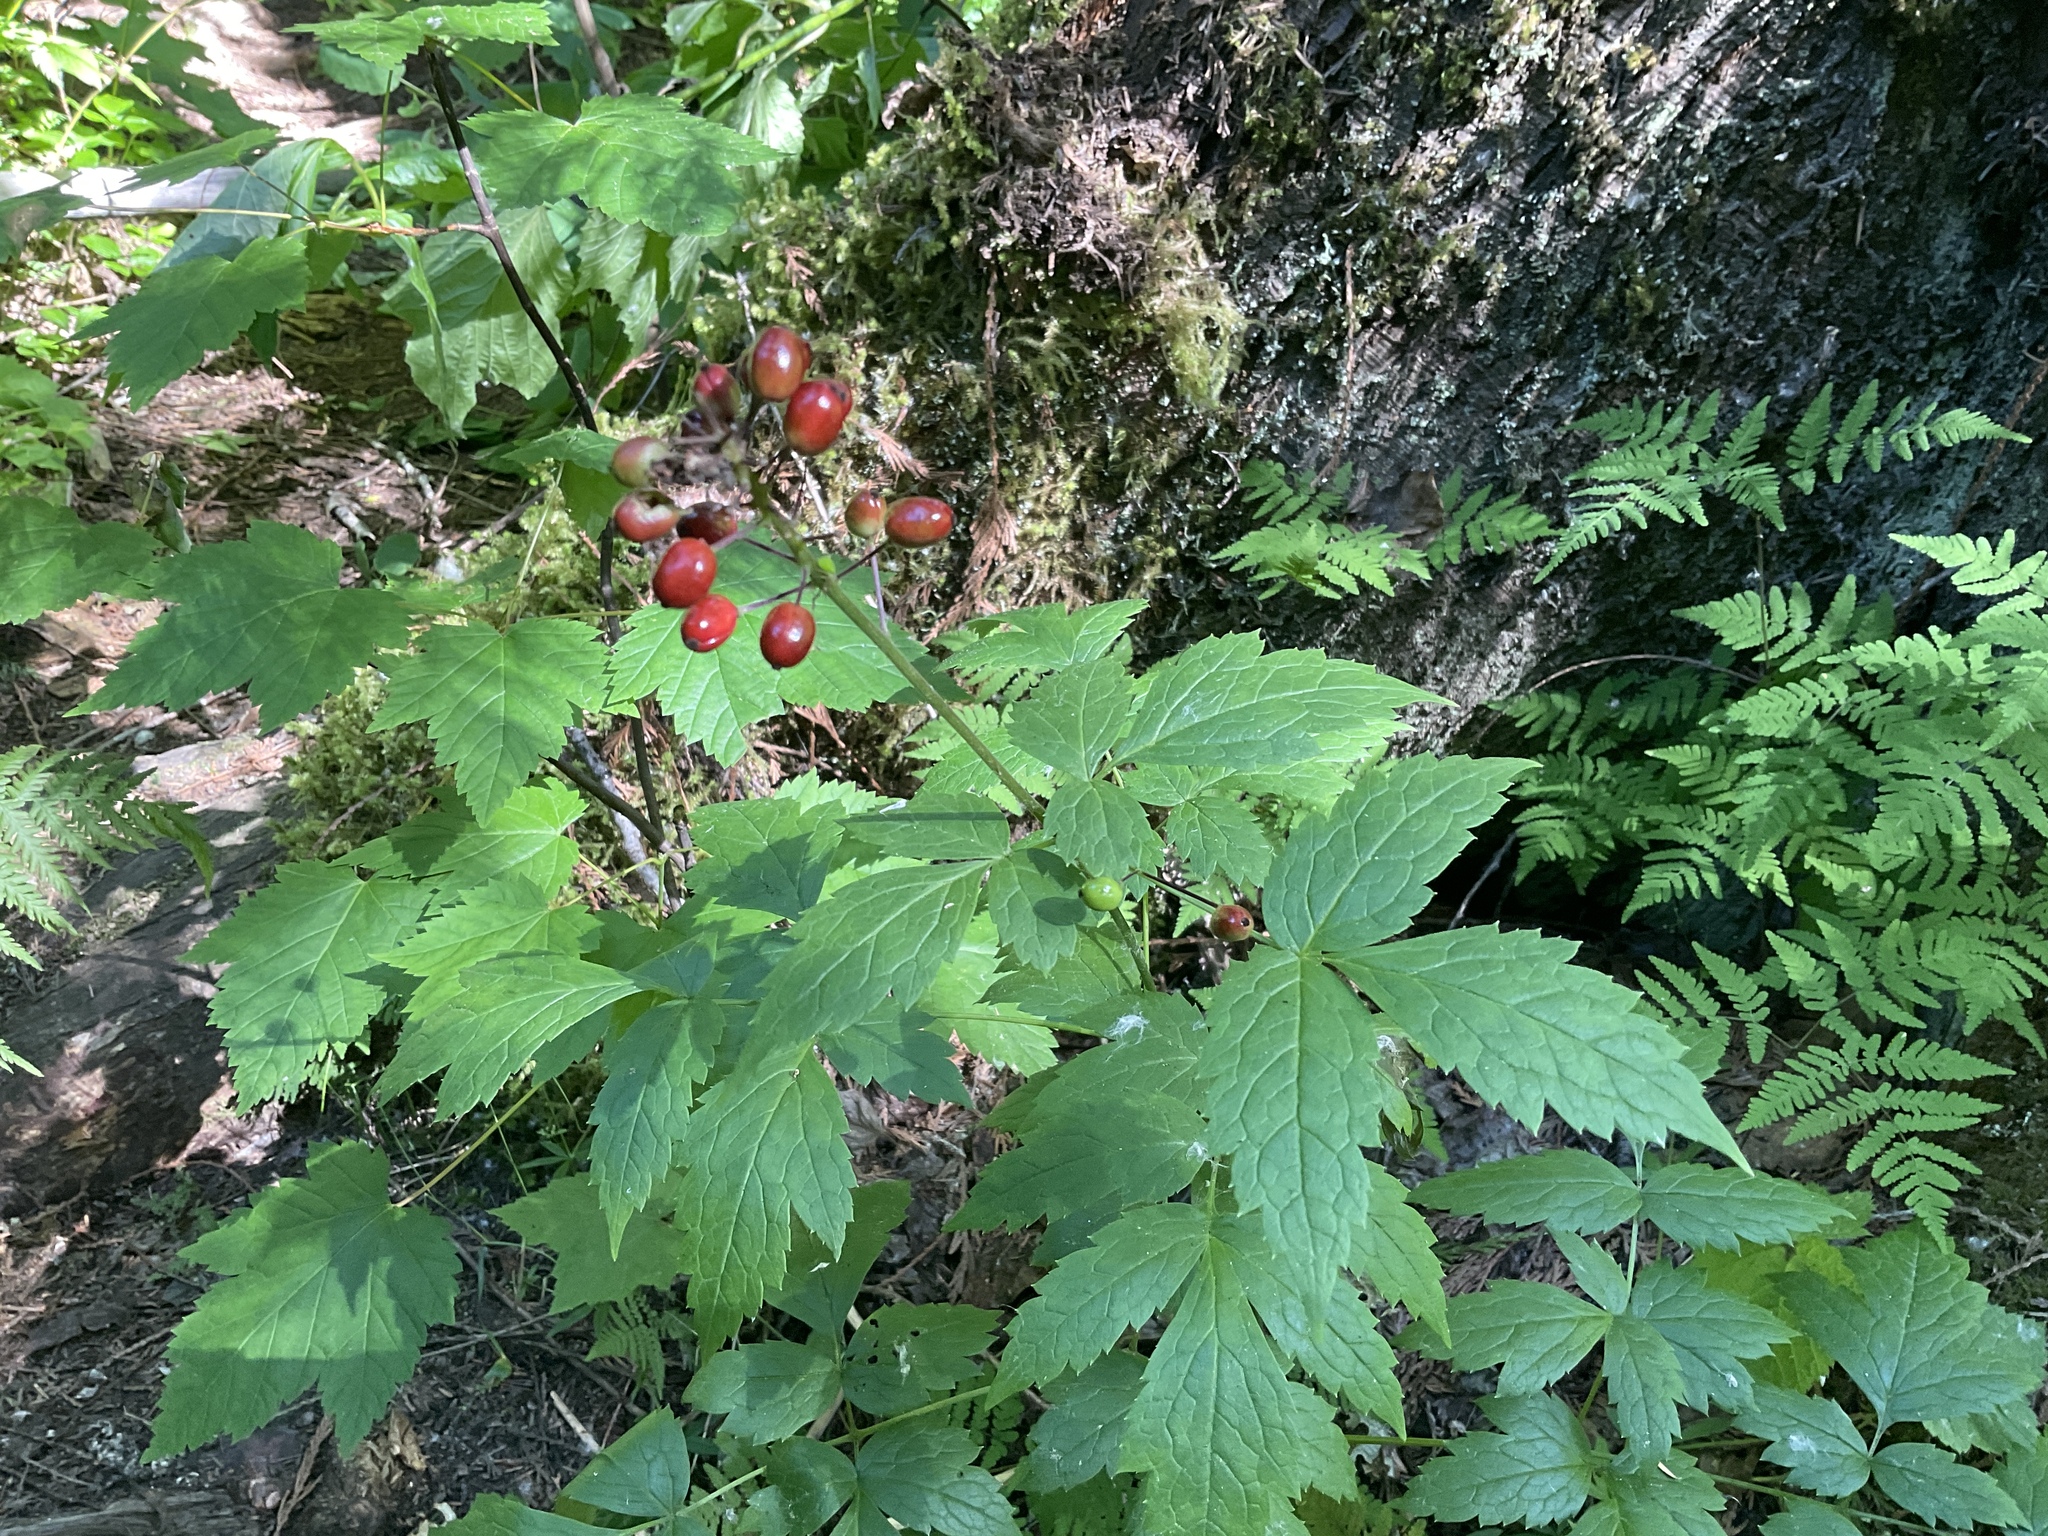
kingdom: Plantae
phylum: Tracheophyta
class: Magnoliopsida
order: Ranunculales
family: Ranunculaceae
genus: Actaea
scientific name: Actaea rubra
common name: Red baneberry
